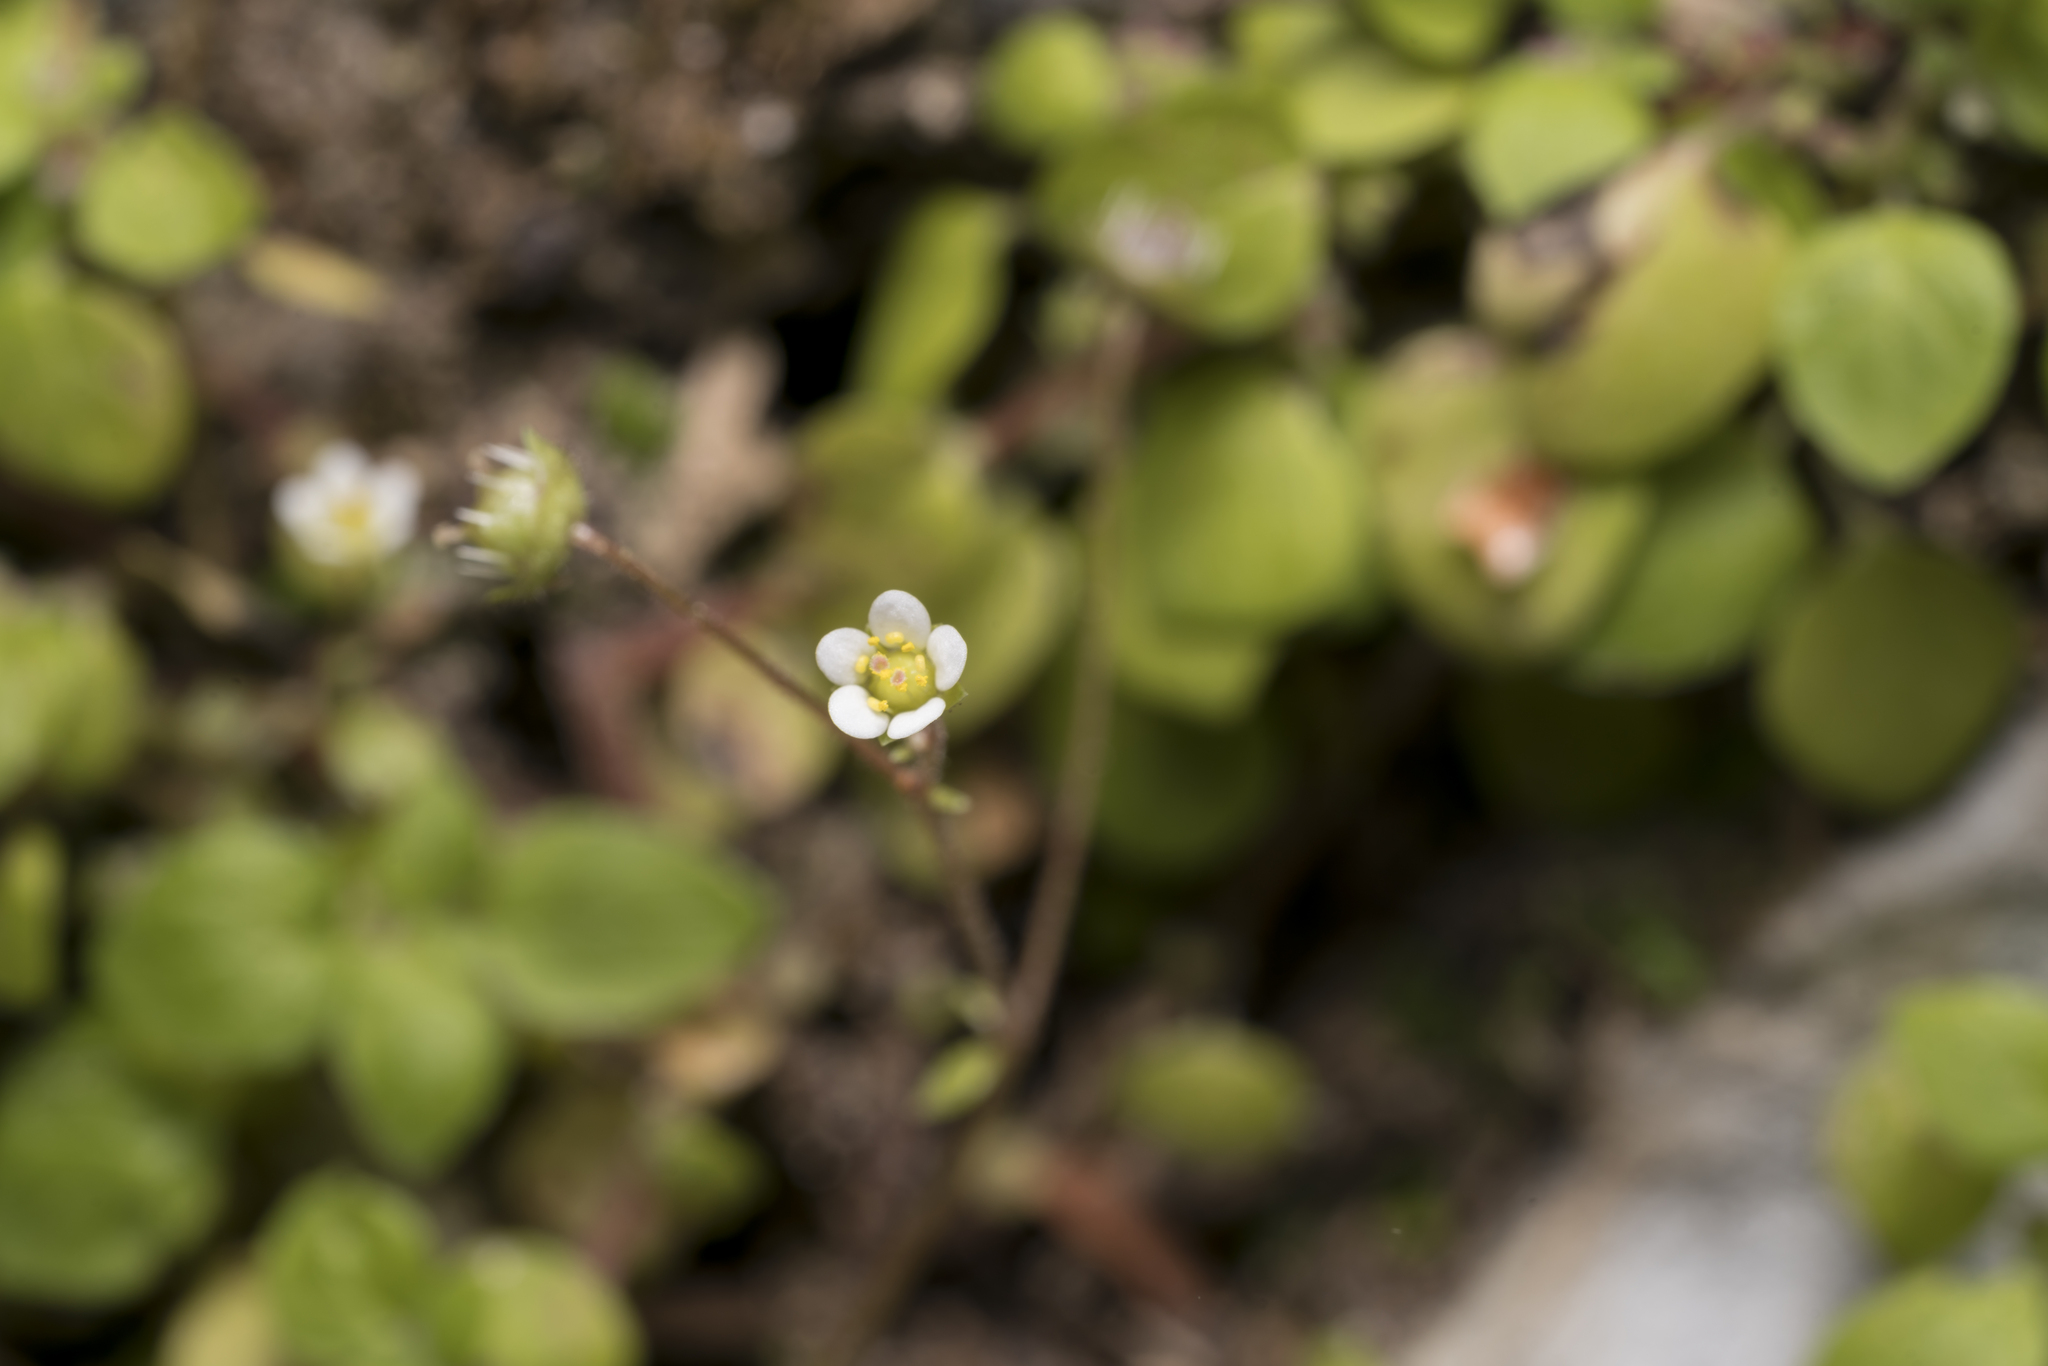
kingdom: Plantae
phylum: Tracheophyta
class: Magnoliopsida
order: Saxifragales
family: Saxifragaceae
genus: Saxifraga
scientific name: Saxifraga hederacea
